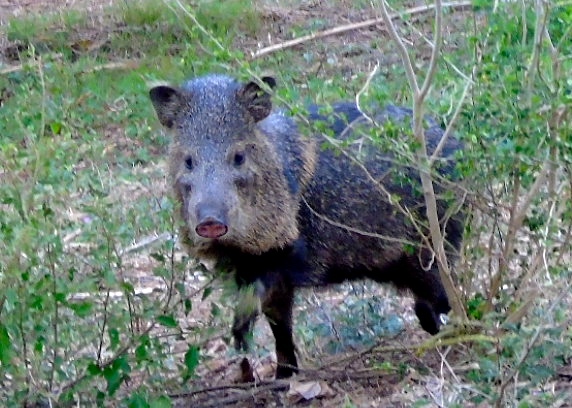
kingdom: Animalia
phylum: Chordata
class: Mammalia
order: Artiodactyla
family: Tayassuidae
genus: Pecari
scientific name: Pecari tajacu
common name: Collared peccary
